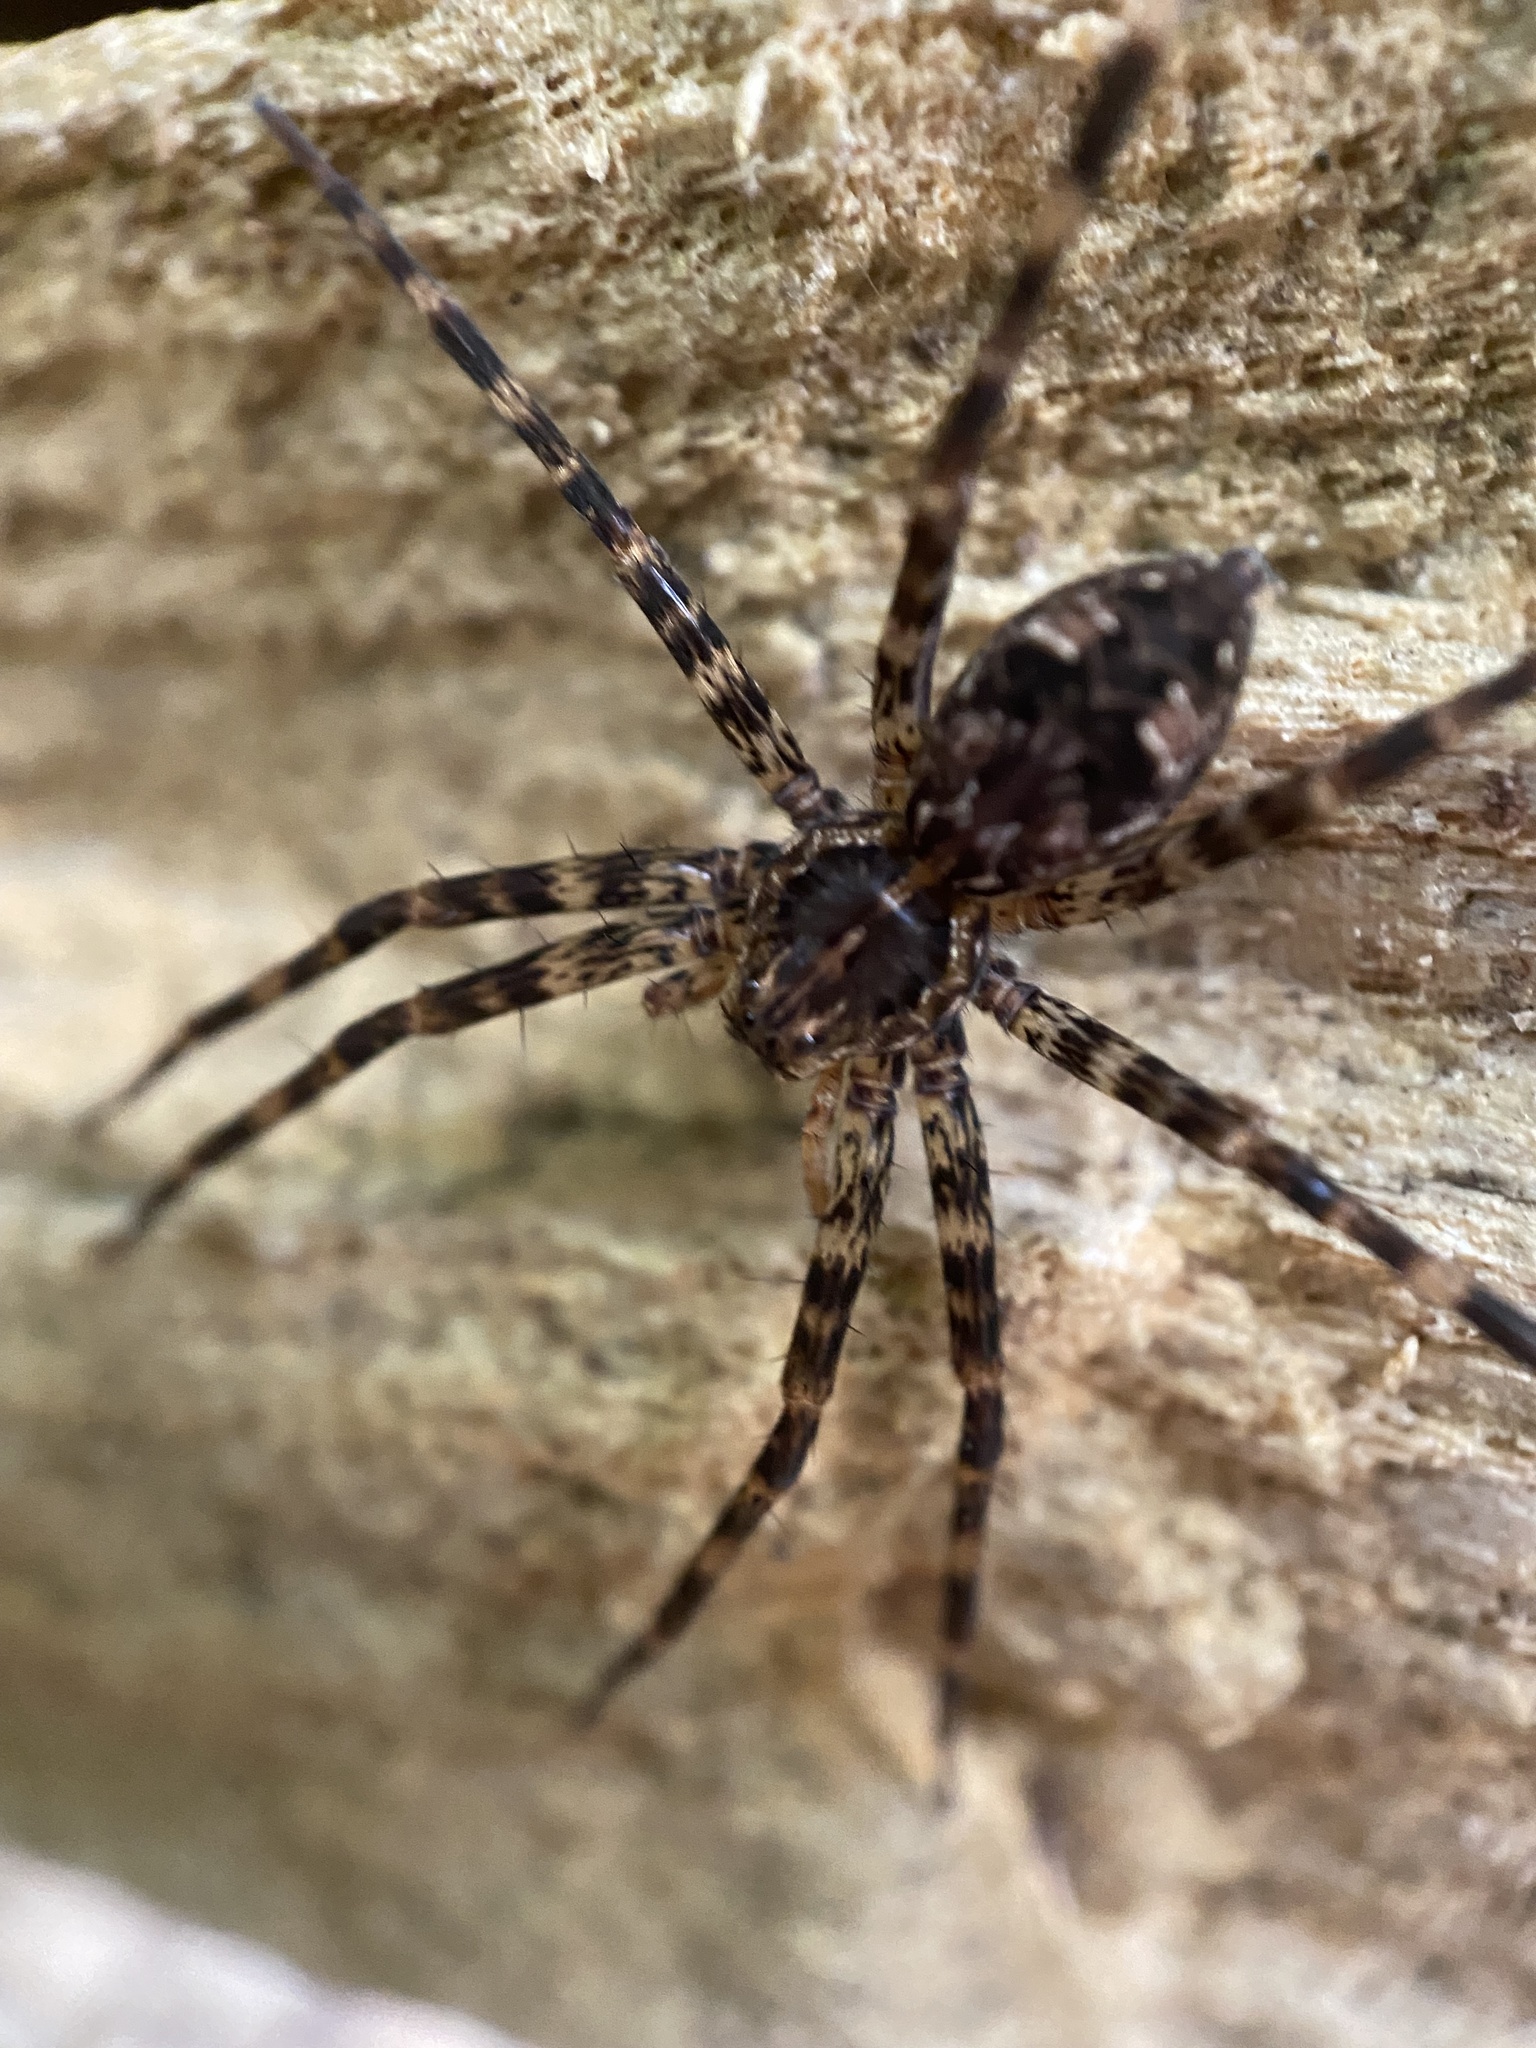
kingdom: Animalia
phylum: Arthropoda
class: Arachnida
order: Araneae
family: Pisauridae
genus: Dolomedes
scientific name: Dolomedes tenebrosus
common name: Dark fishing spider
